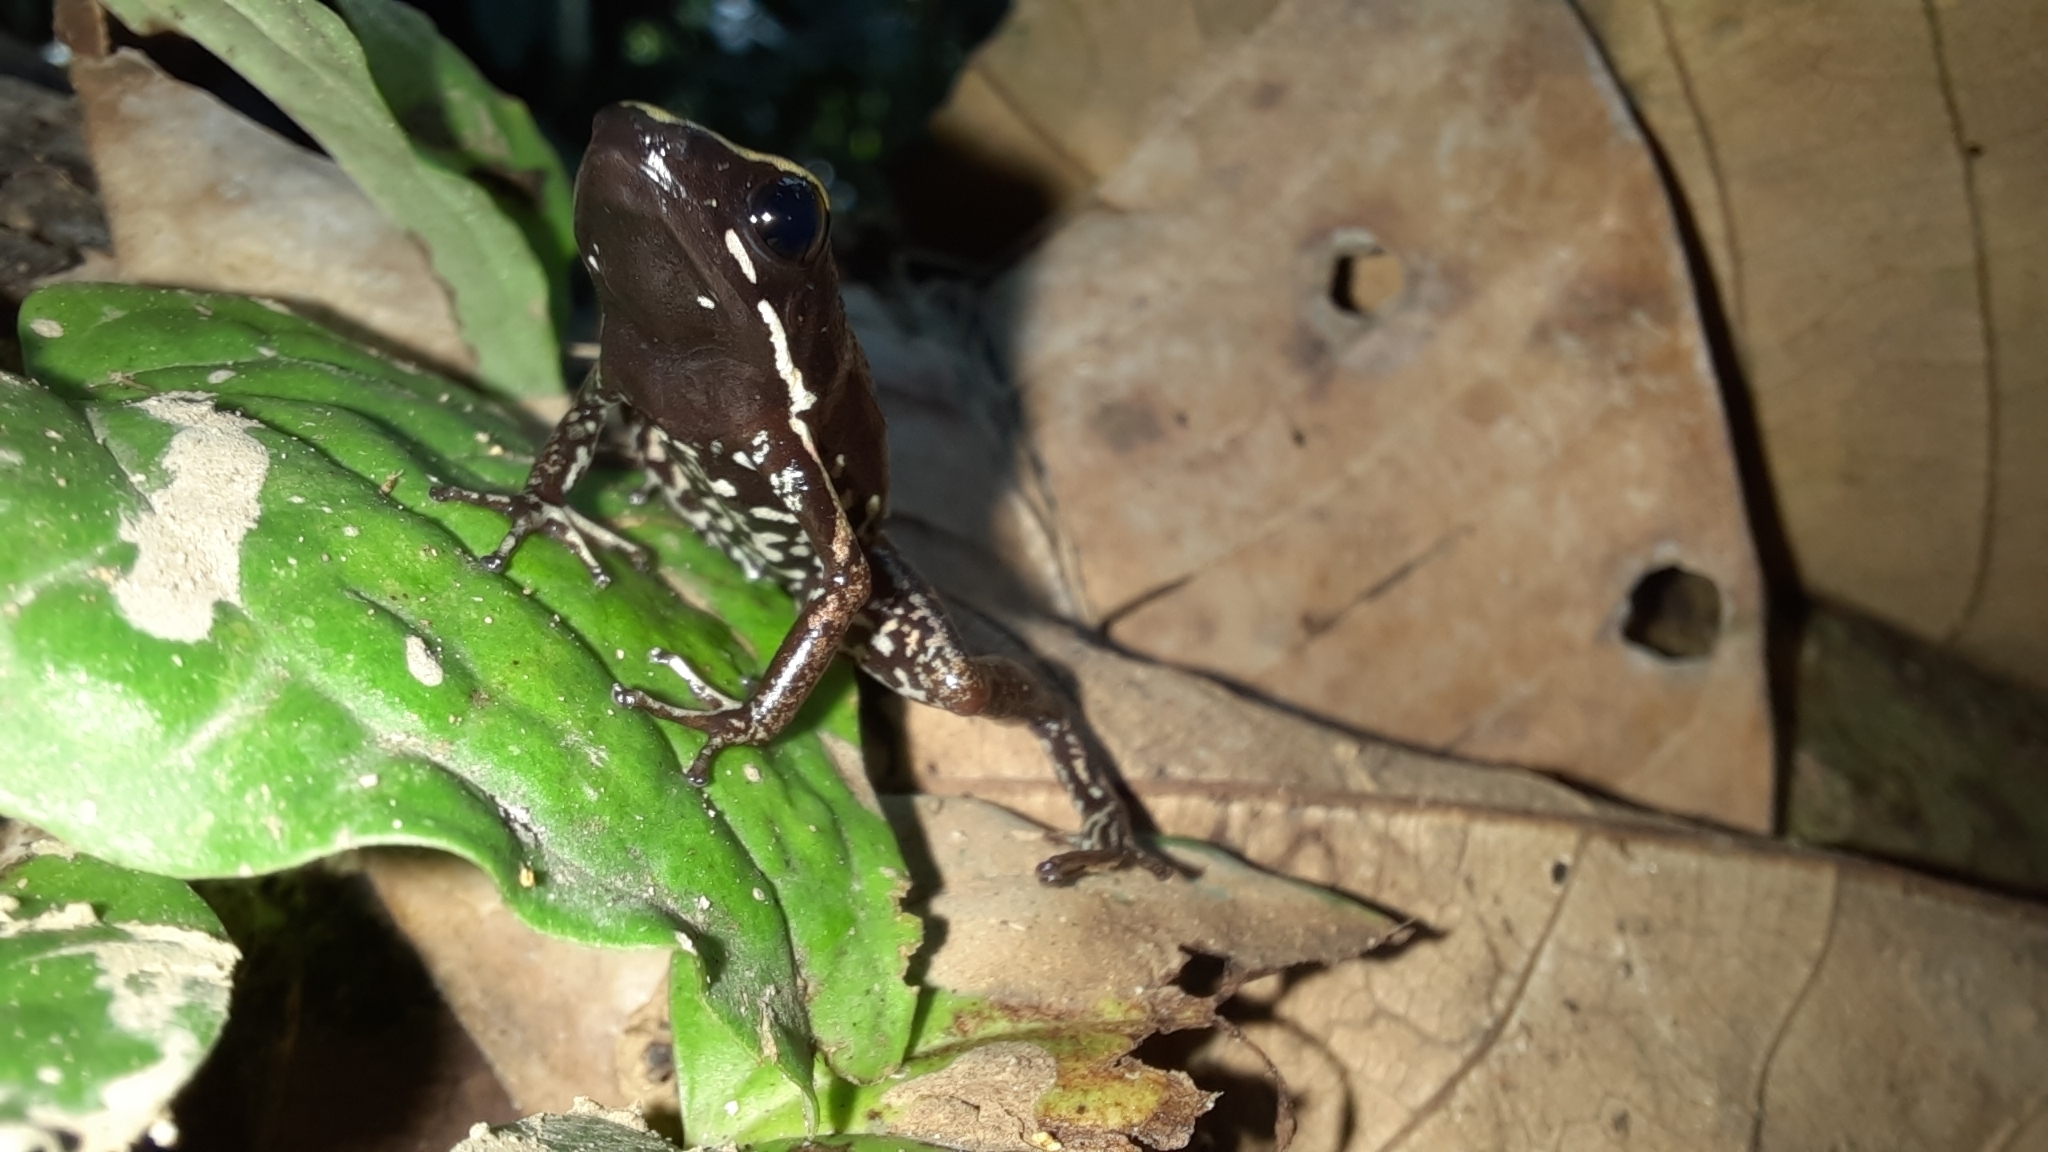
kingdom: Animalia
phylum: Chordata
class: Amphibia
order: Anura
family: Dendrobatidae
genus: Phyllobates
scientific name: Phyllobates lugubris
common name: Lovely poison frog
